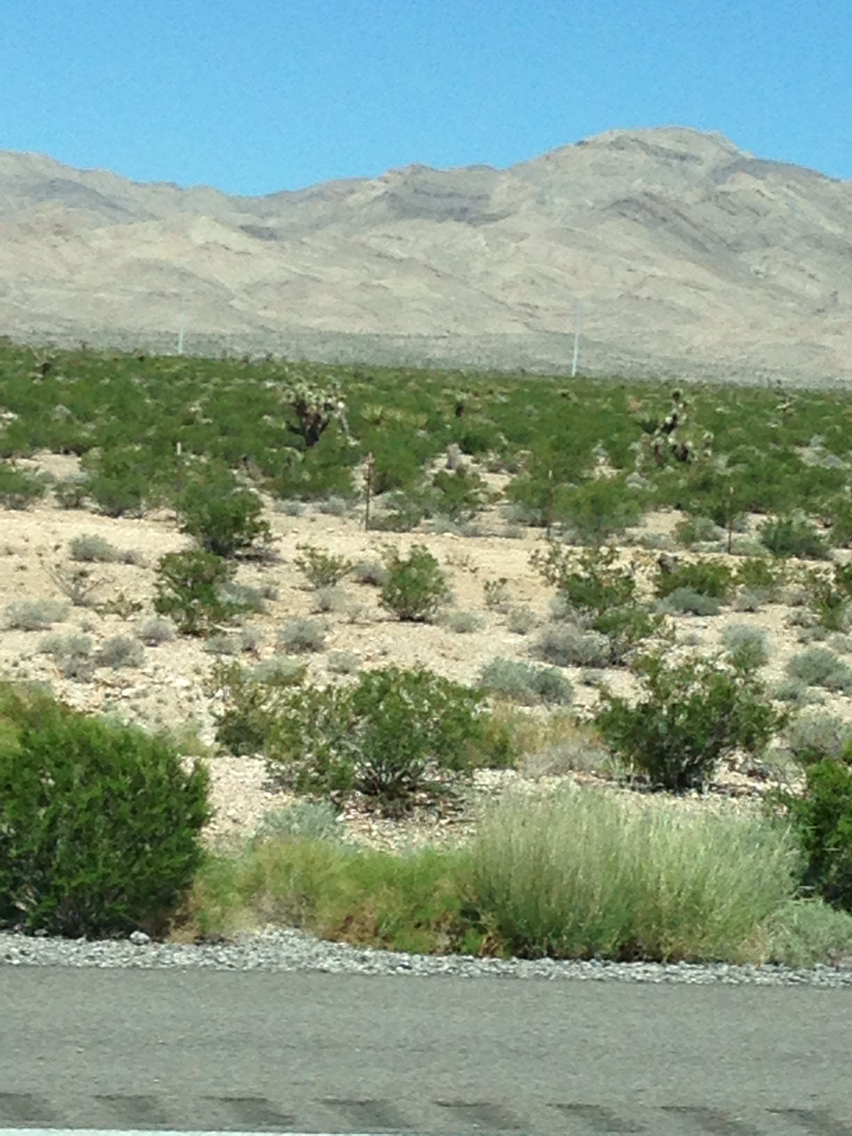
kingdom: Plantae
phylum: Tracheophyta
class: Liliopsida
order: Asparagales
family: Asparagaceae
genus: Yucca
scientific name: Yucca brevifolia
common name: Joshua tree
